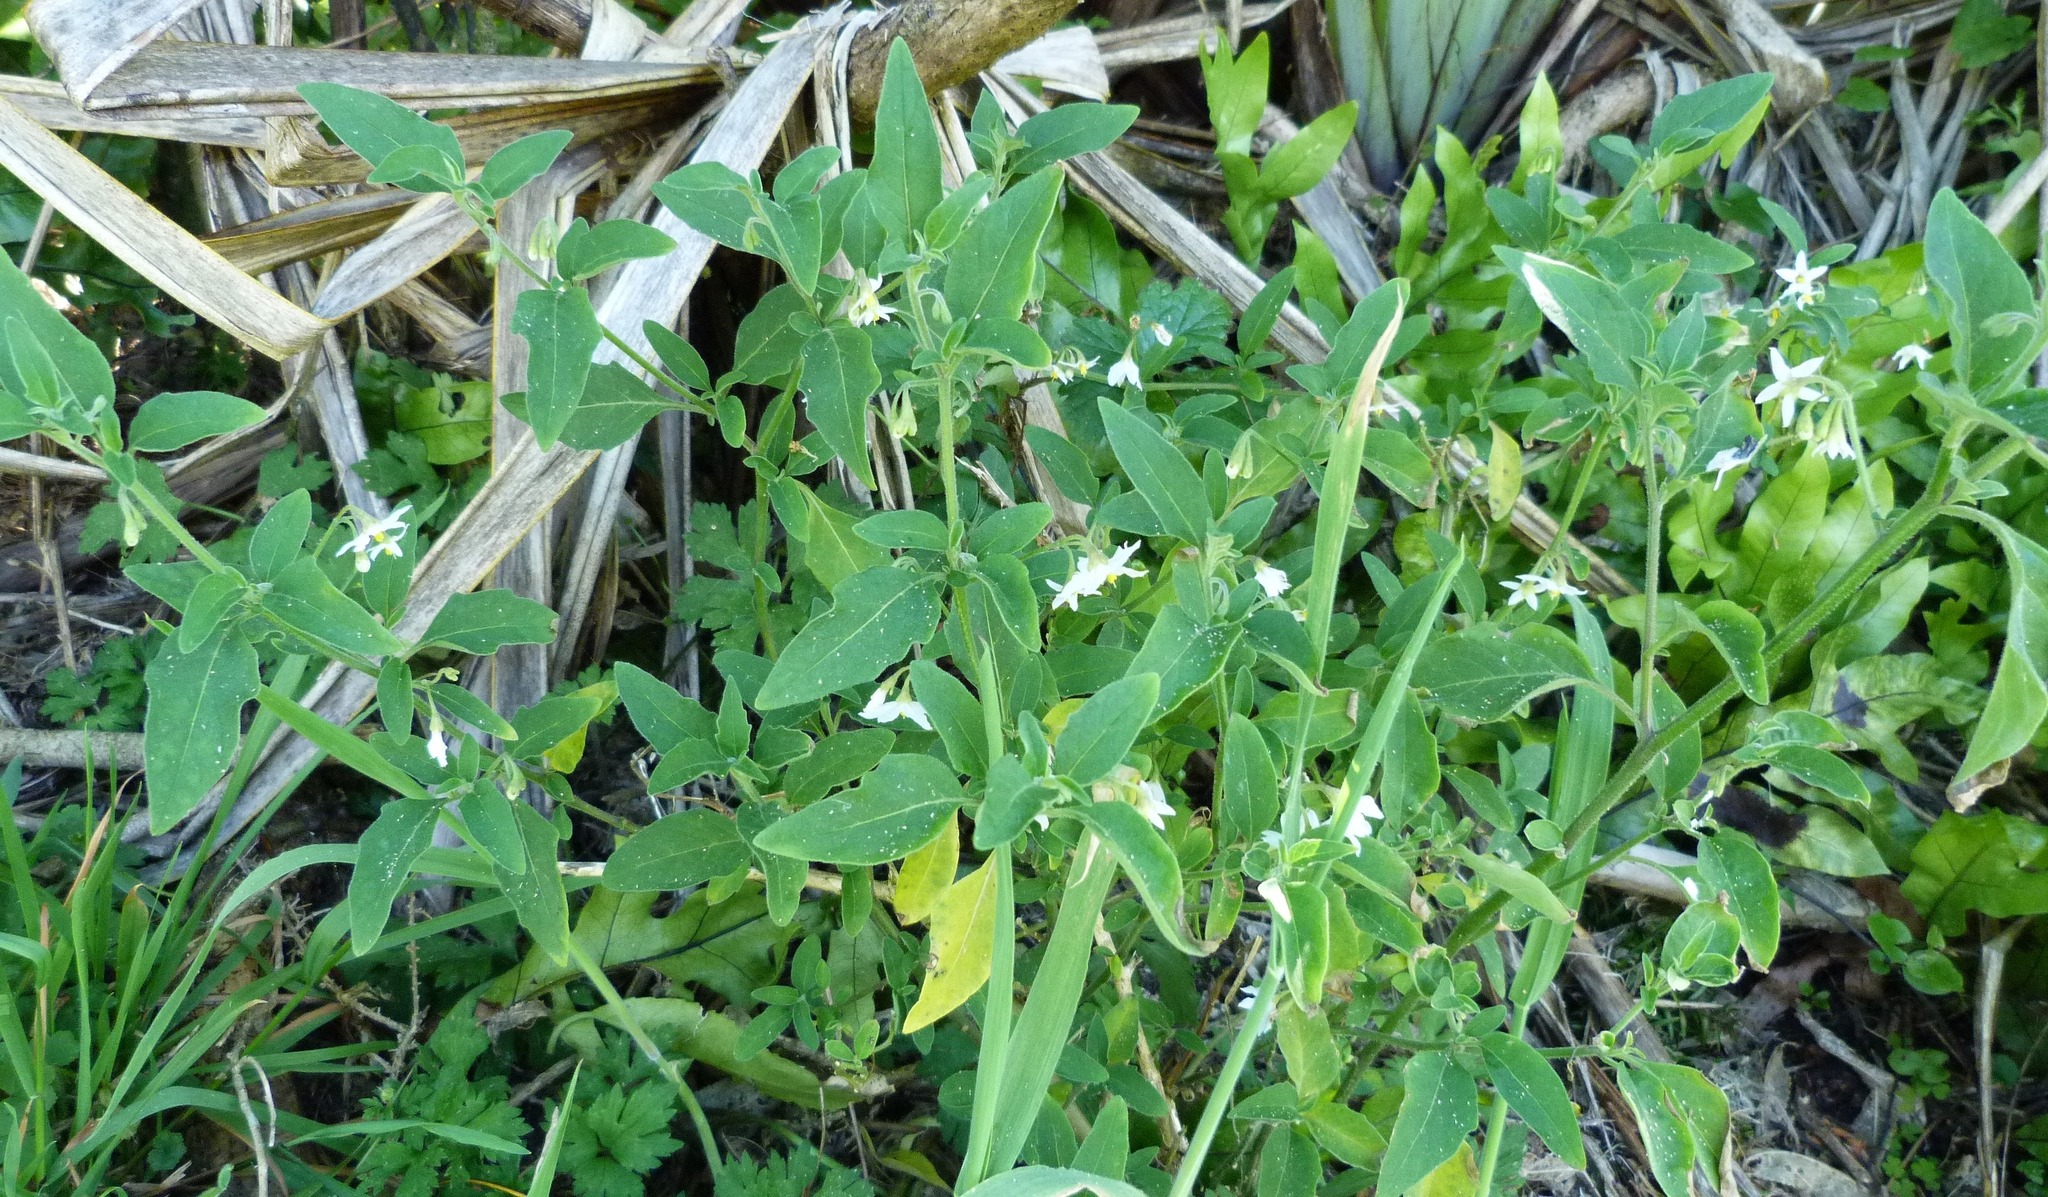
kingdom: Plantae
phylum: Tracheophyta
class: Magnoliopsida
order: Solanales
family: Solanaceae
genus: Solanum
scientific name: Solanum chenopodioides
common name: Tall nightshade
